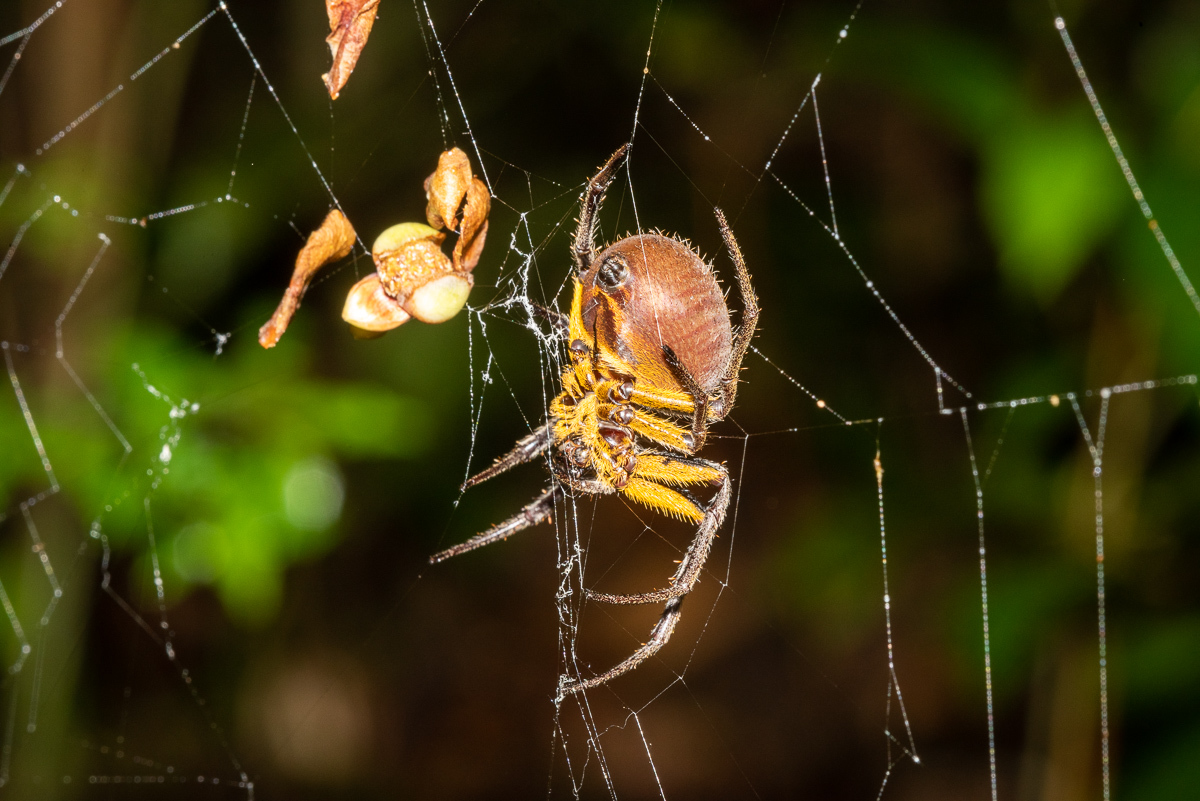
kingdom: Animalia
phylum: Arthropoda
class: Arachnida
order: Araneae
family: Araneidae
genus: Eriophora
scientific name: Eriophora fuliginea
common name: Orb weavers
